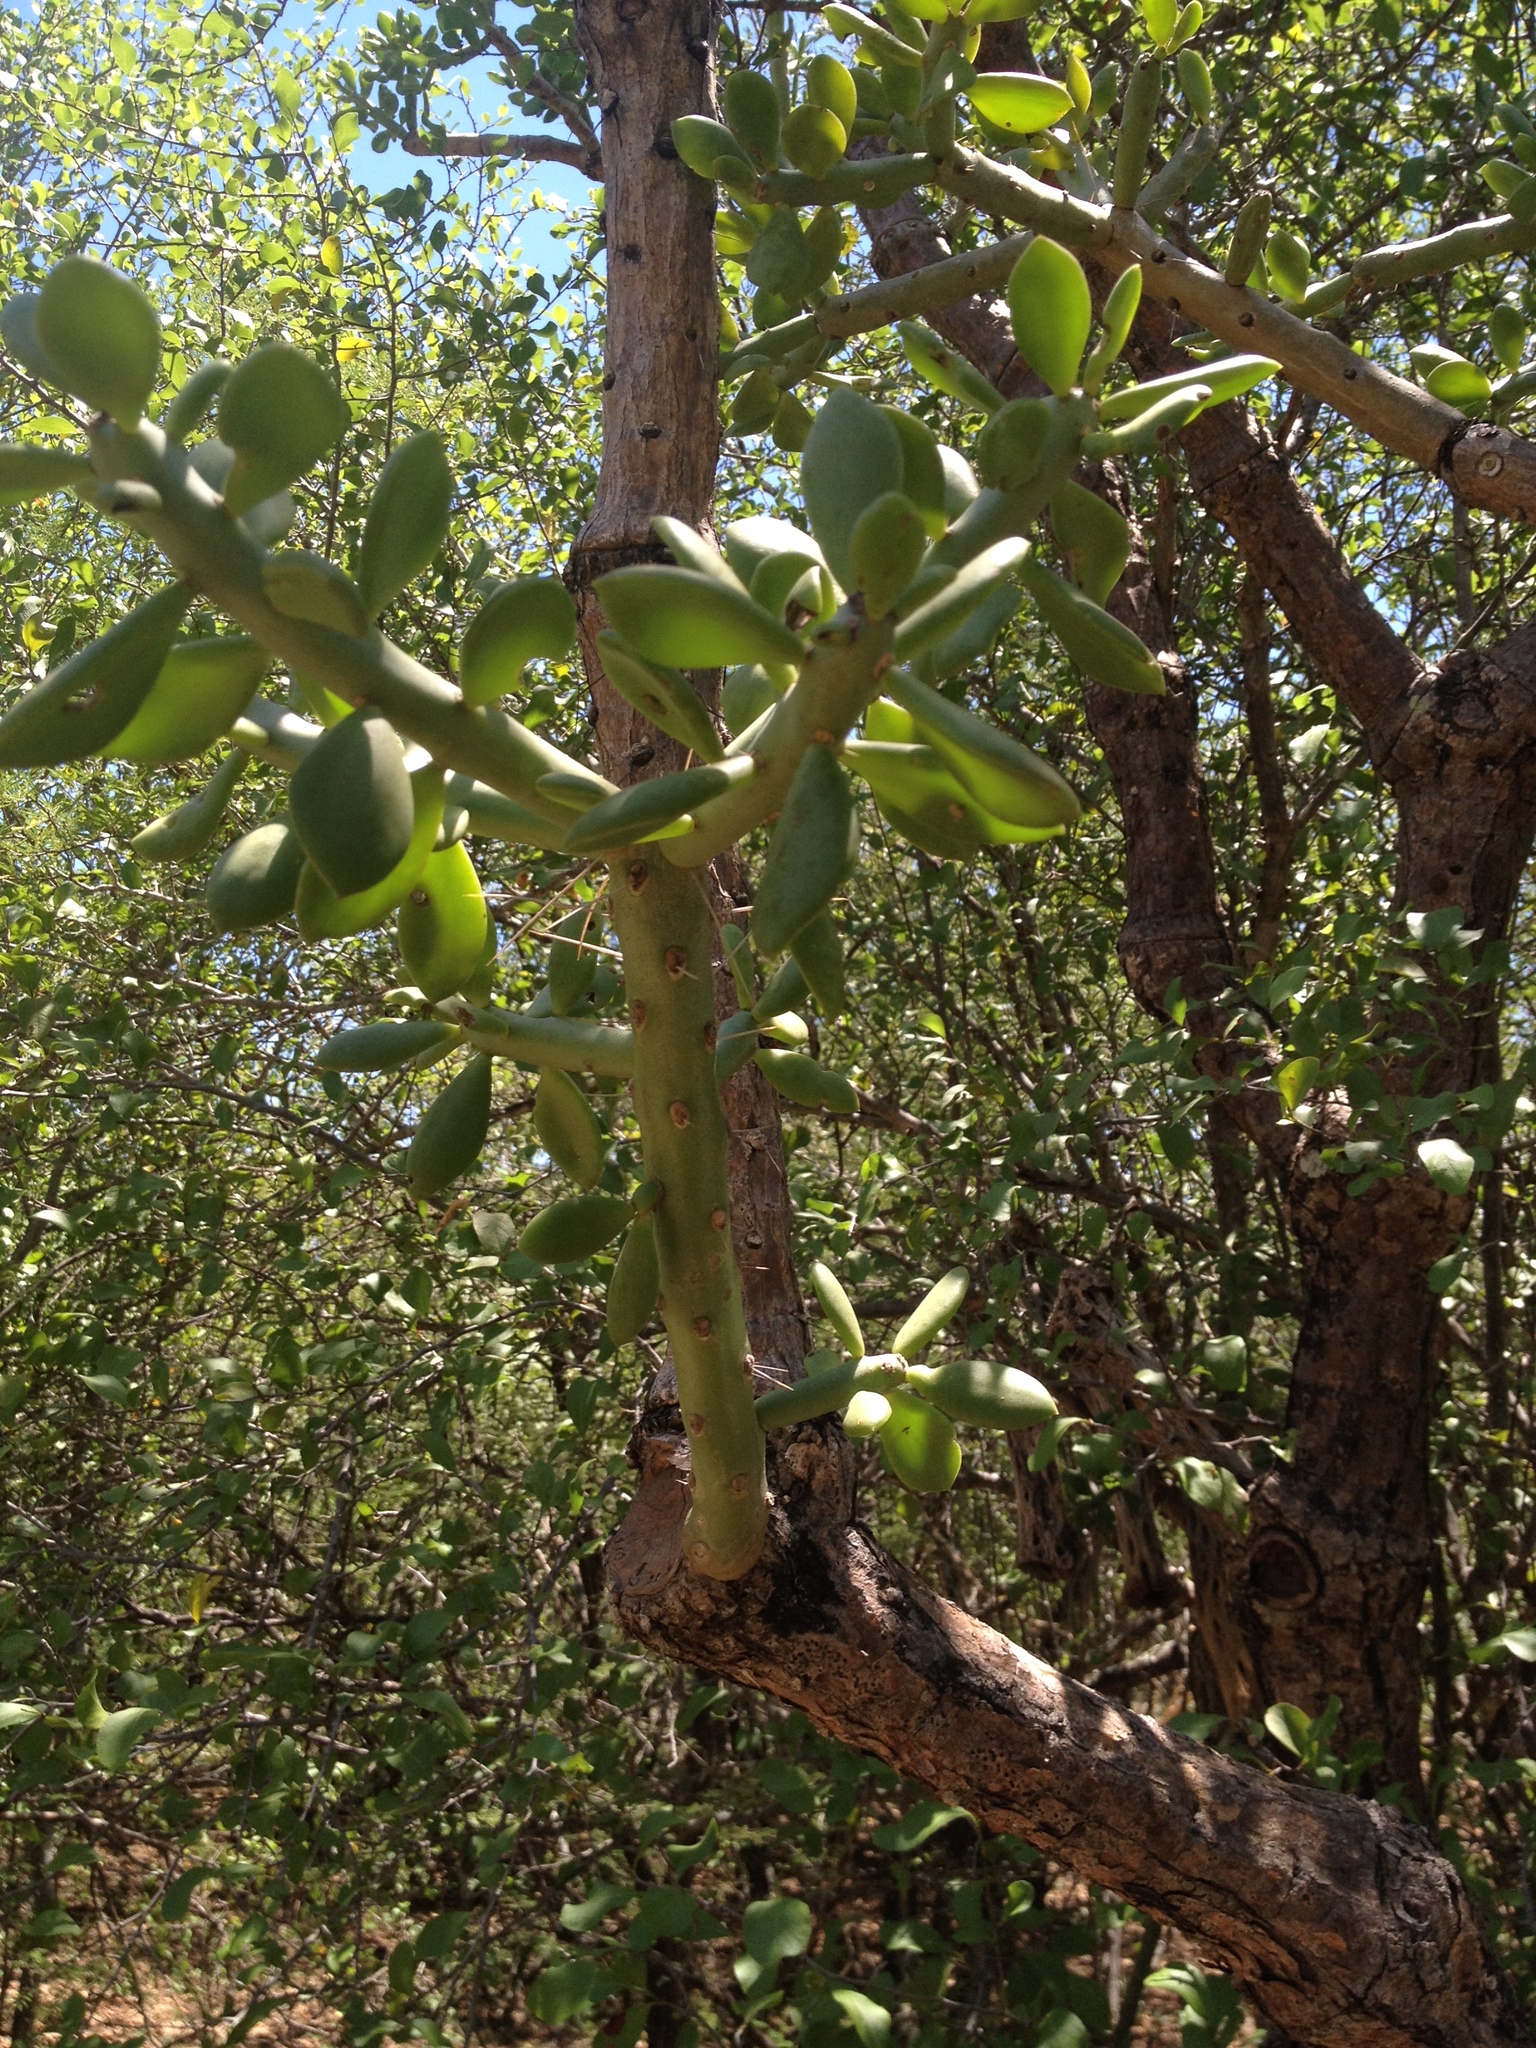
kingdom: Plantae
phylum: Tracheophyta
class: Magnoliopsida
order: Caryophyllales
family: Cactaceae
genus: Quiabentia
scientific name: Quiabentia verticillata
